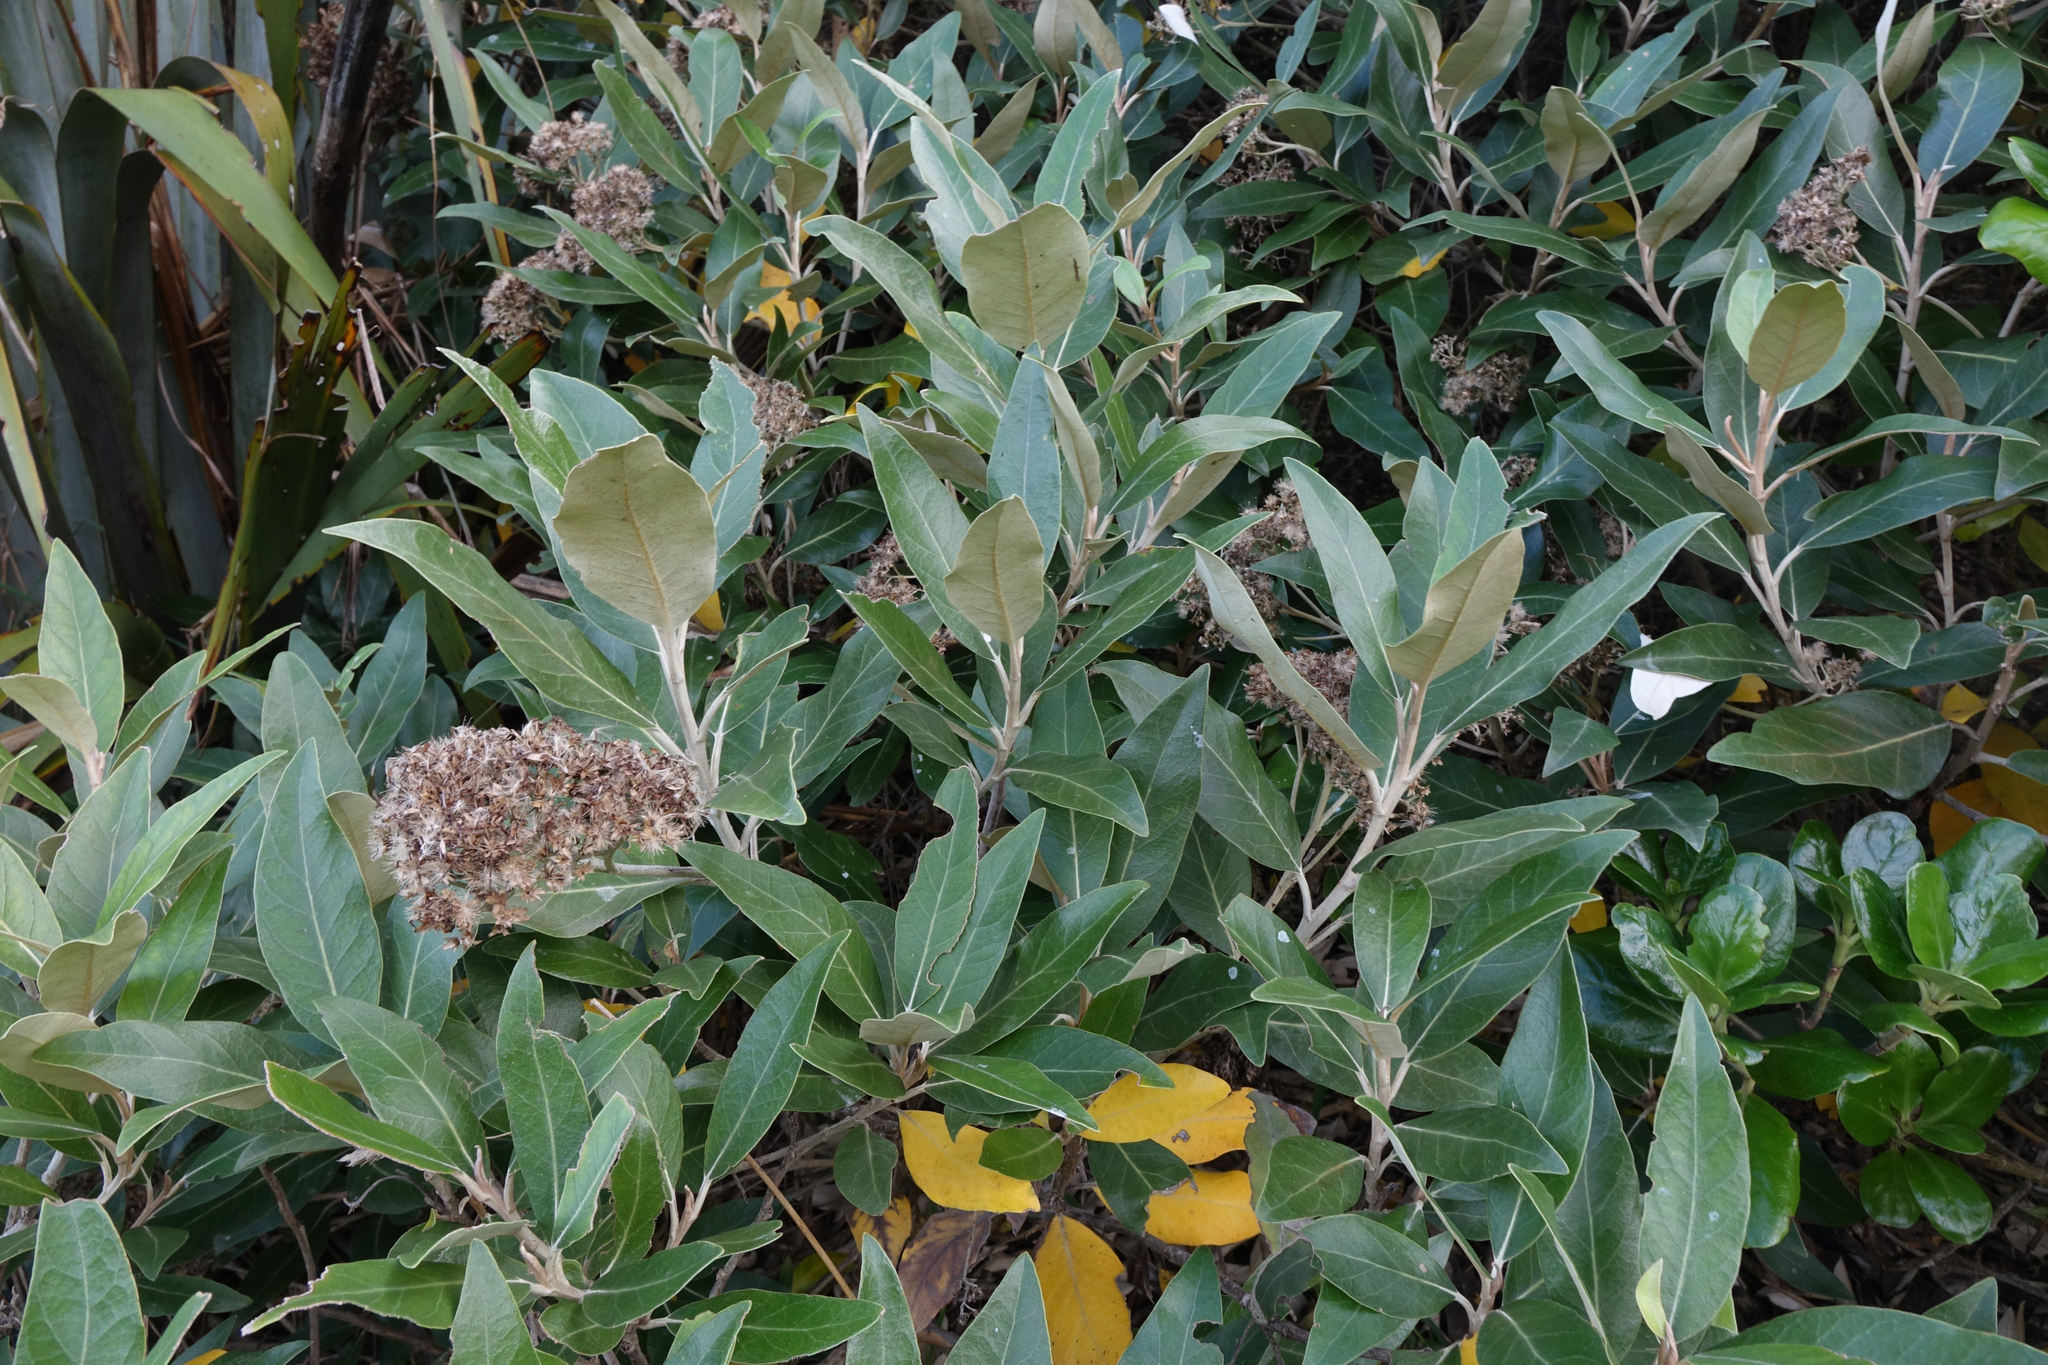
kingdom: Plantae
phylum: Tracheophyta
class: Magnoliopsida
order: Asterales
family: Asteraceae
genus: Olearia
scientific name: Olearia avicenniifolia
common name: Mangrove-leaf daisybush
